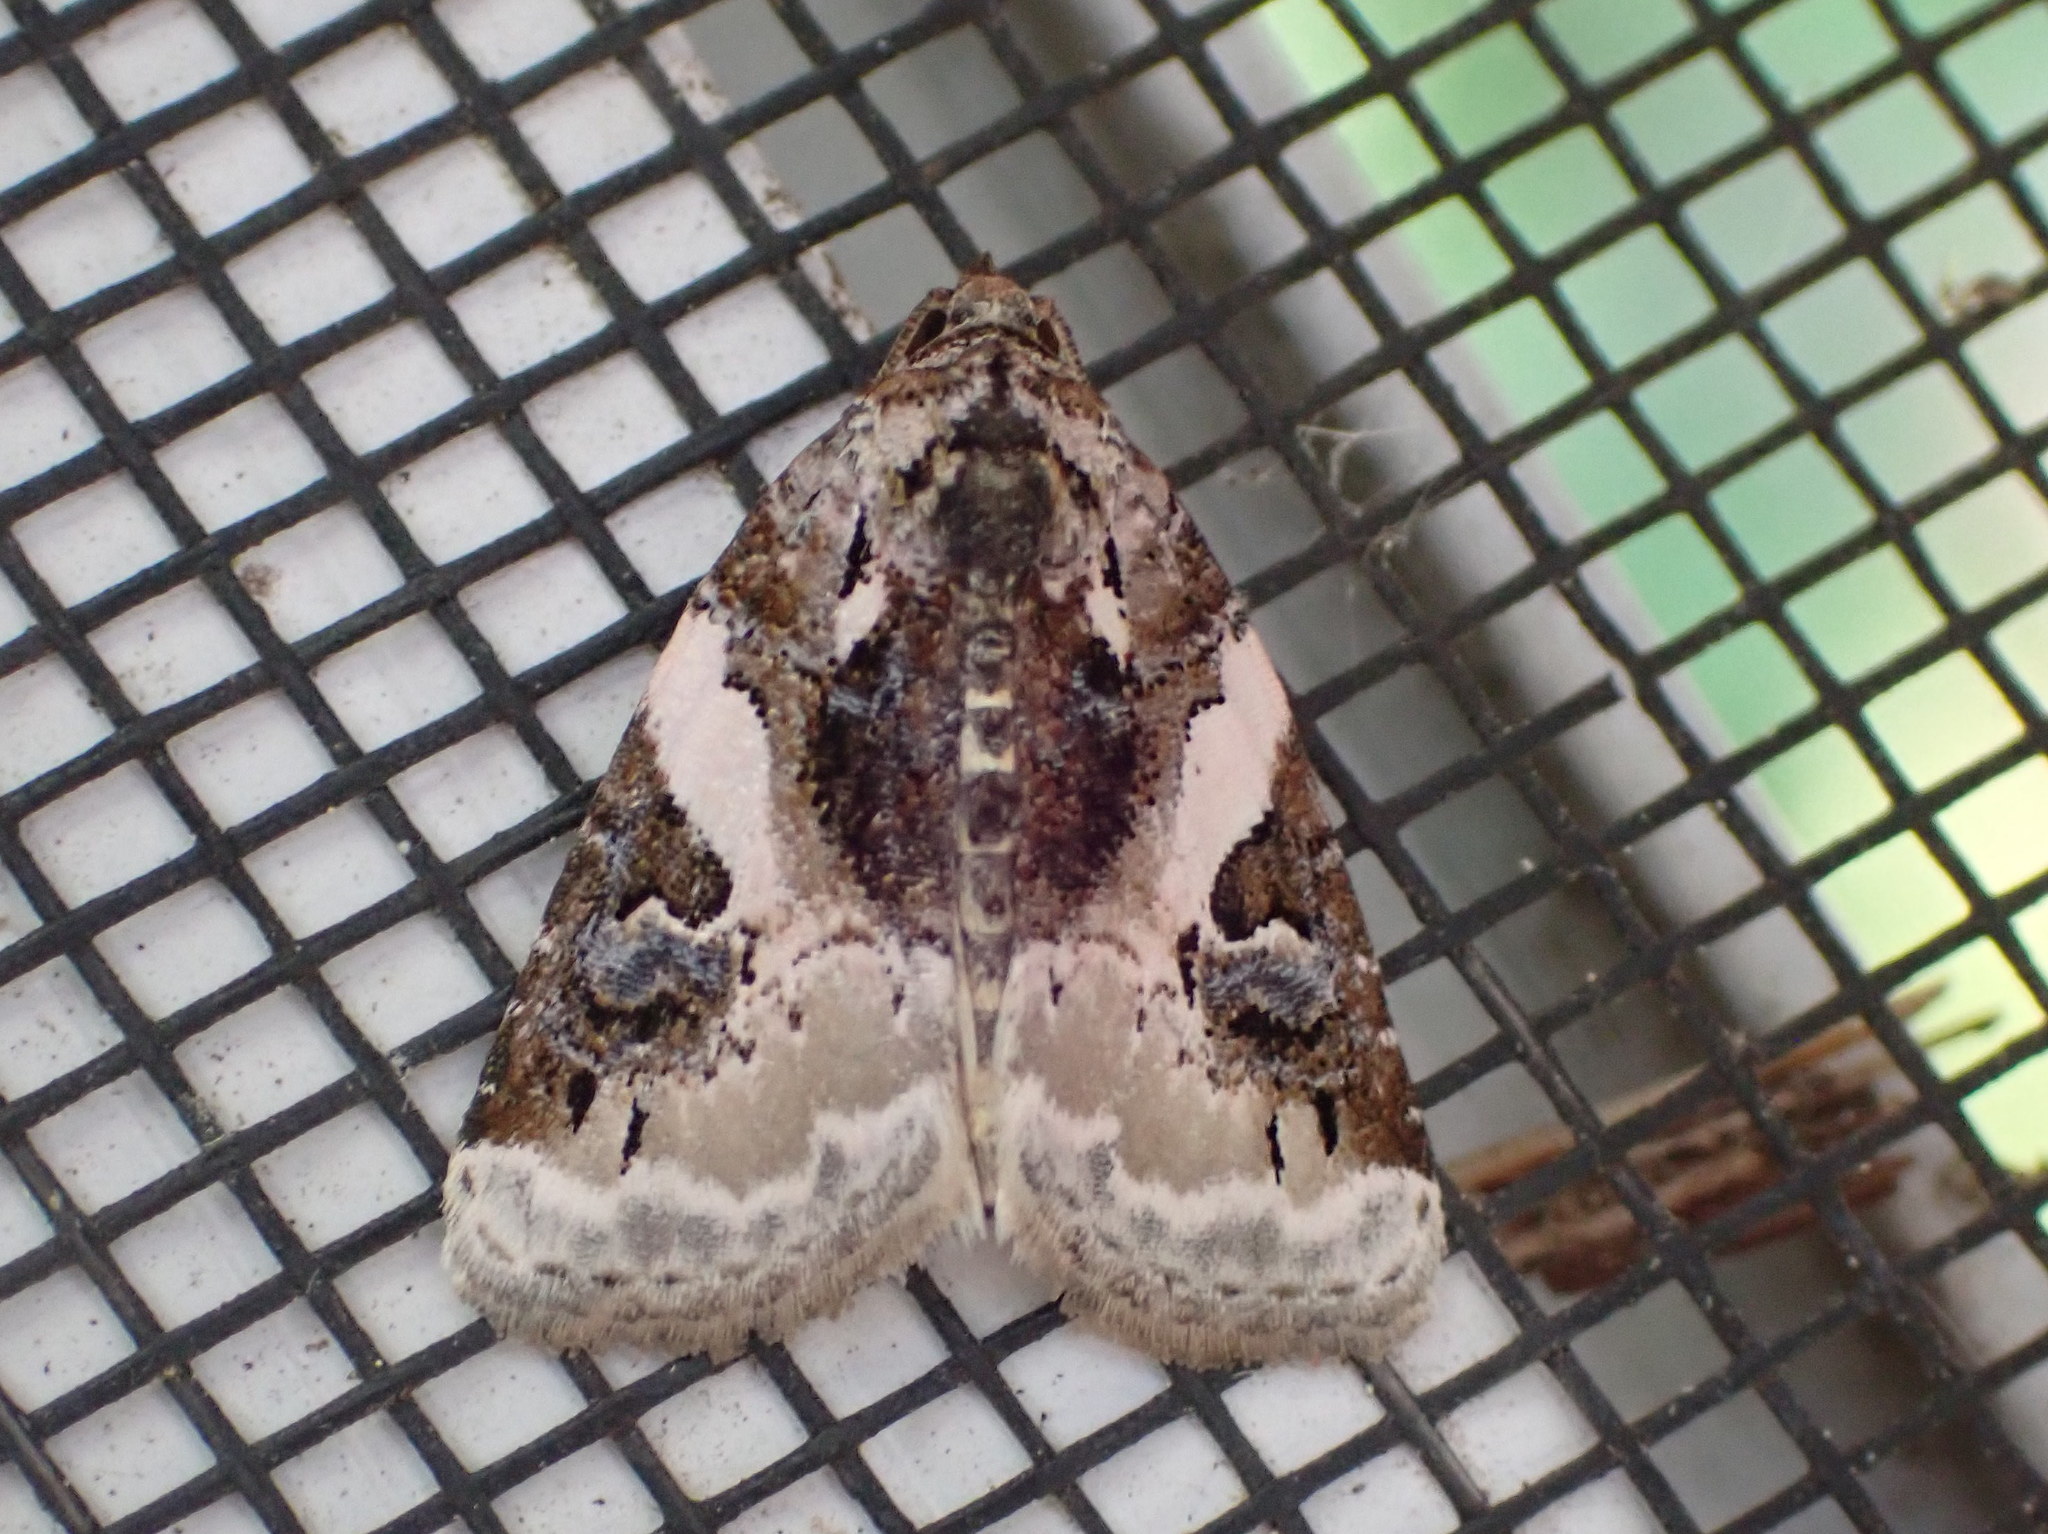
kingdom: Animalia
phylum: Arthropoda
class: Insecta
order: Lepidoptera
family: Noctuidae
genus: Pseudeustrotia
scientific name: Pseudeustrotia carneola
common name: Pink-barred lithacodia moth
